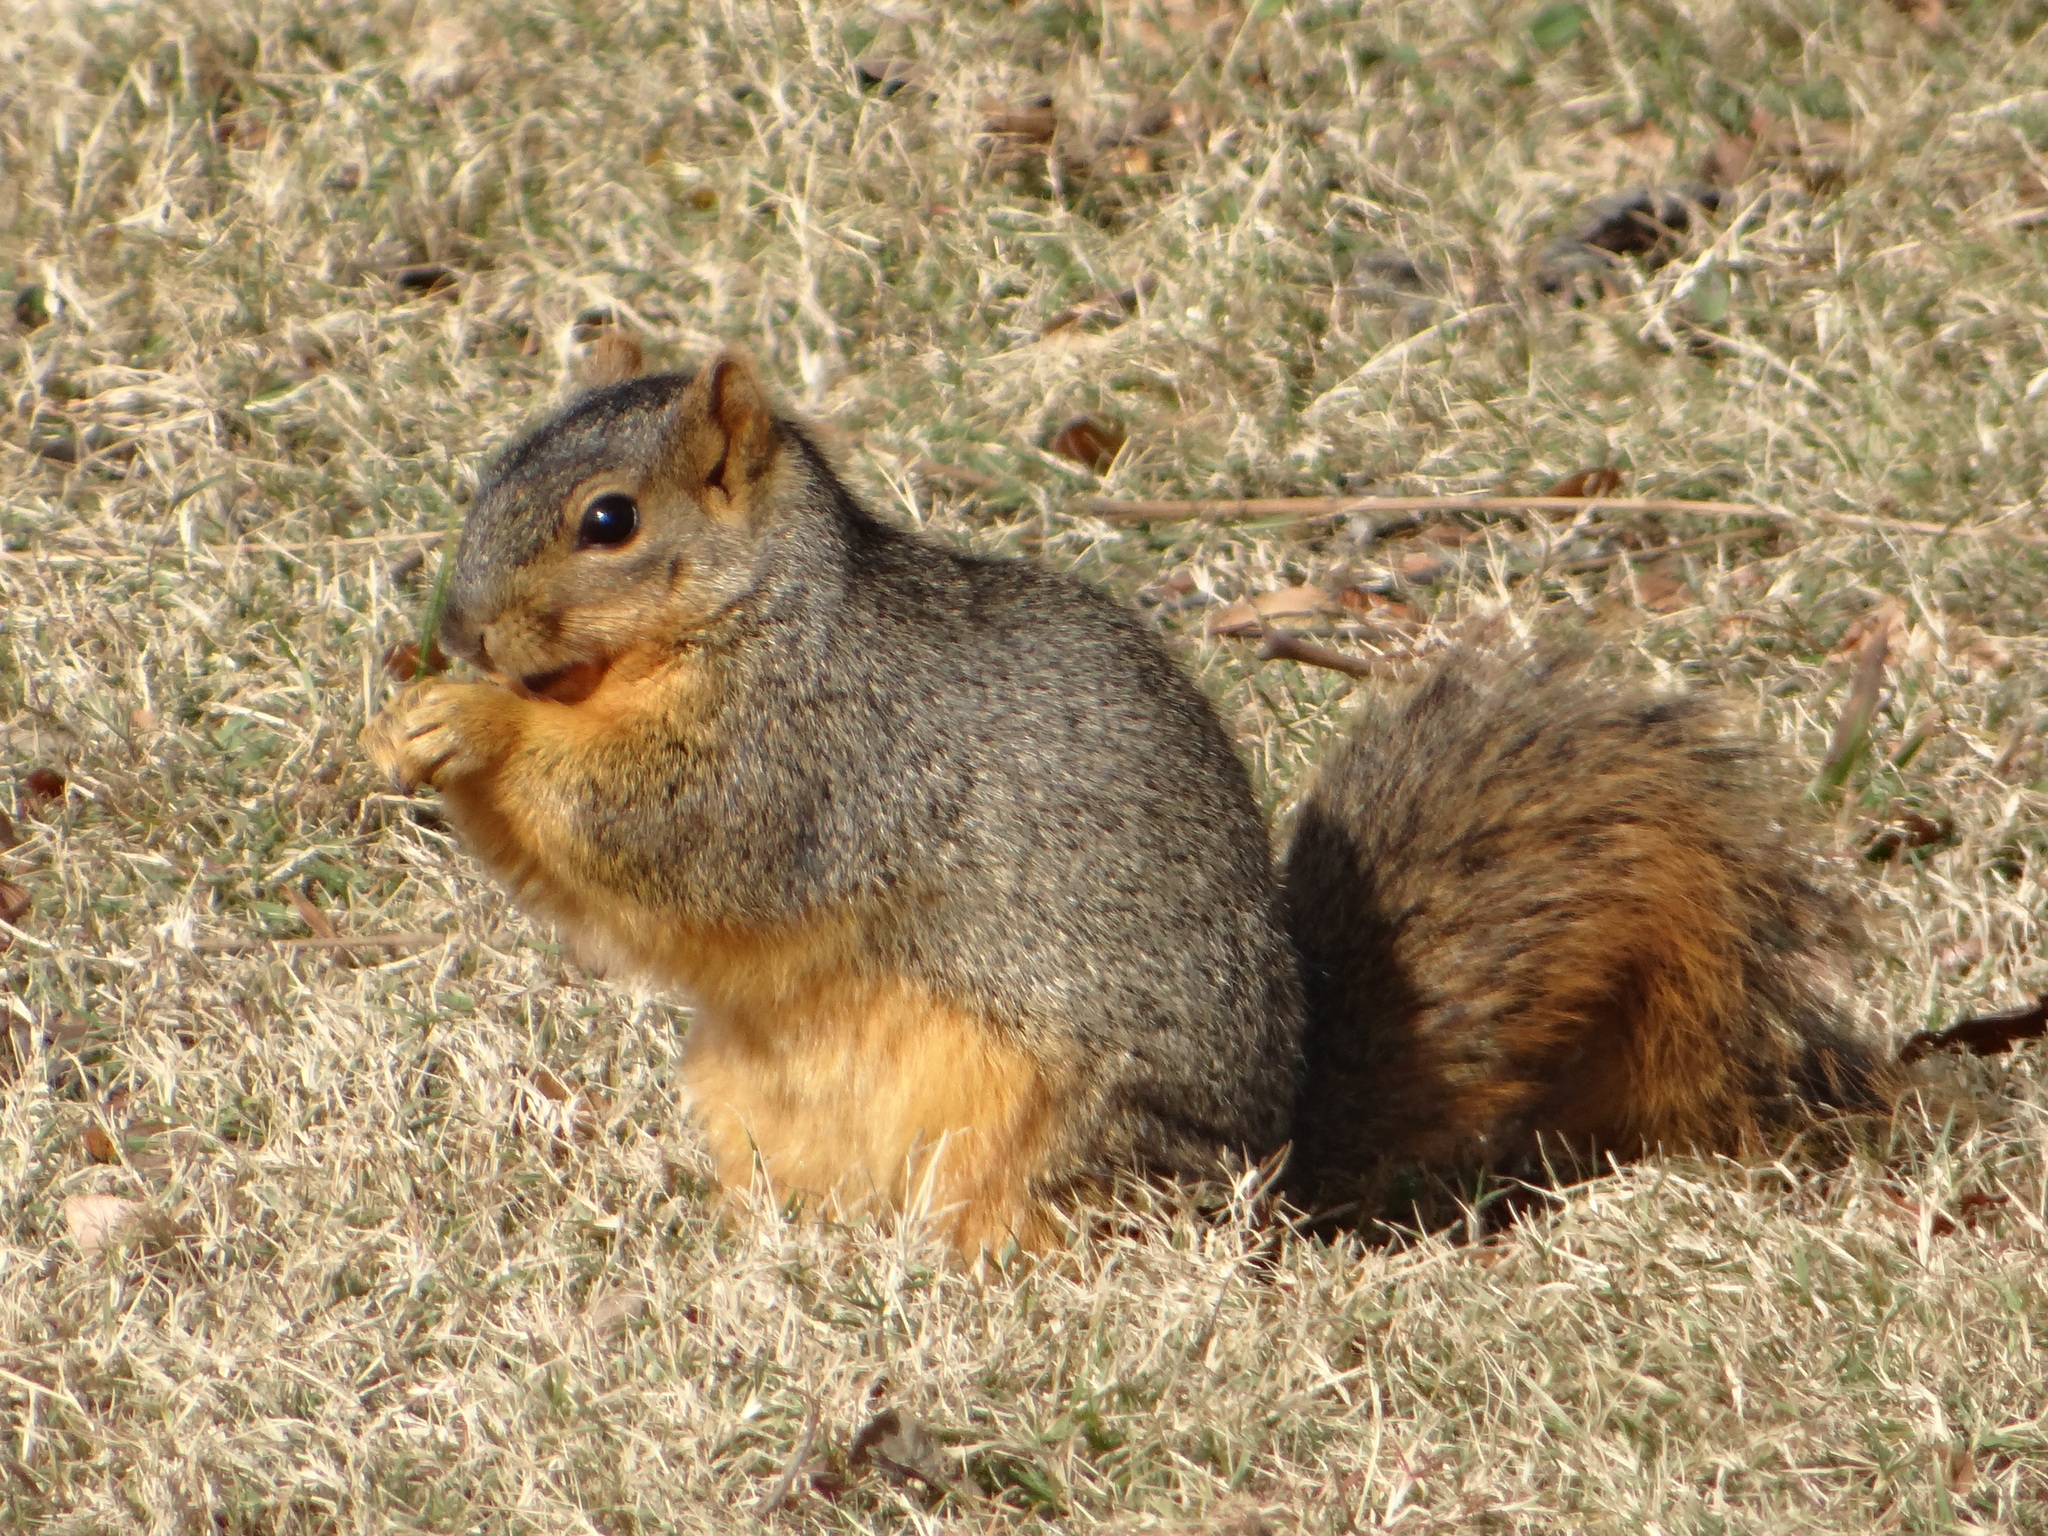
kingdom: Animalia
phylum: Chordata
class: Mammalia
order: Rodentia
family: Sciuridae
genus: Sciurus
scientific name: Sciurus niger
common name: Fox squirrel
